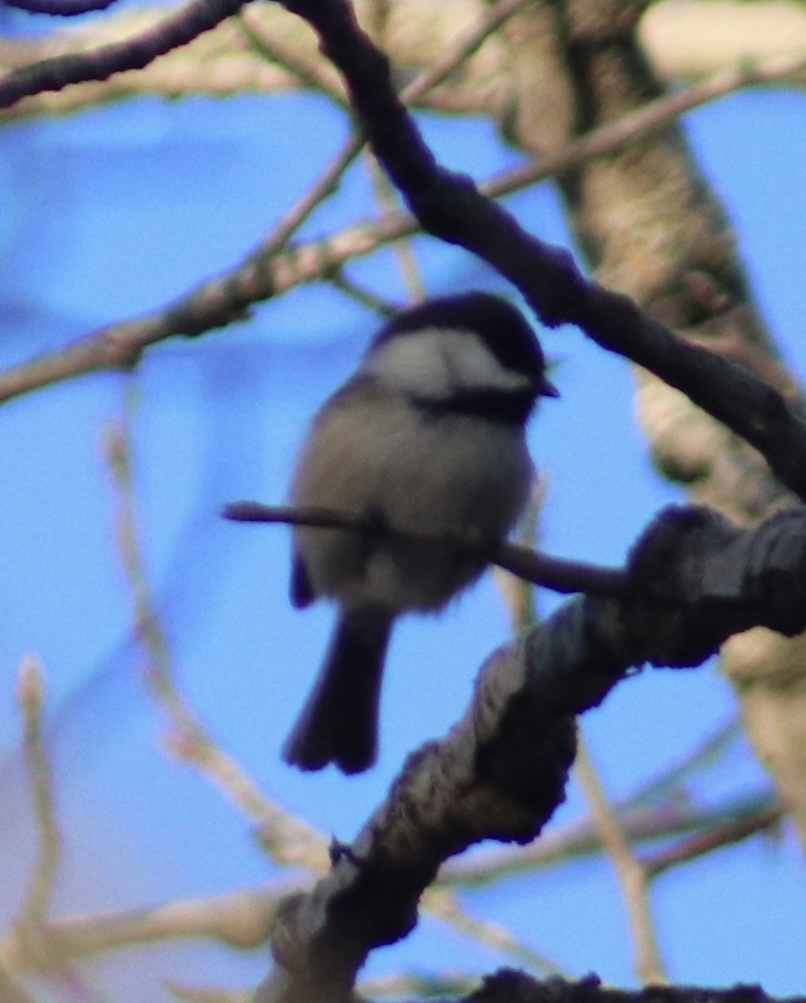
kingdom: Animalia
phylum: Chordata
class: Aves
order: Passeriformes
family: Paridae
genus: Poecile
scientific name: Poecile atricapillus
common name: Black-capped chickadee
